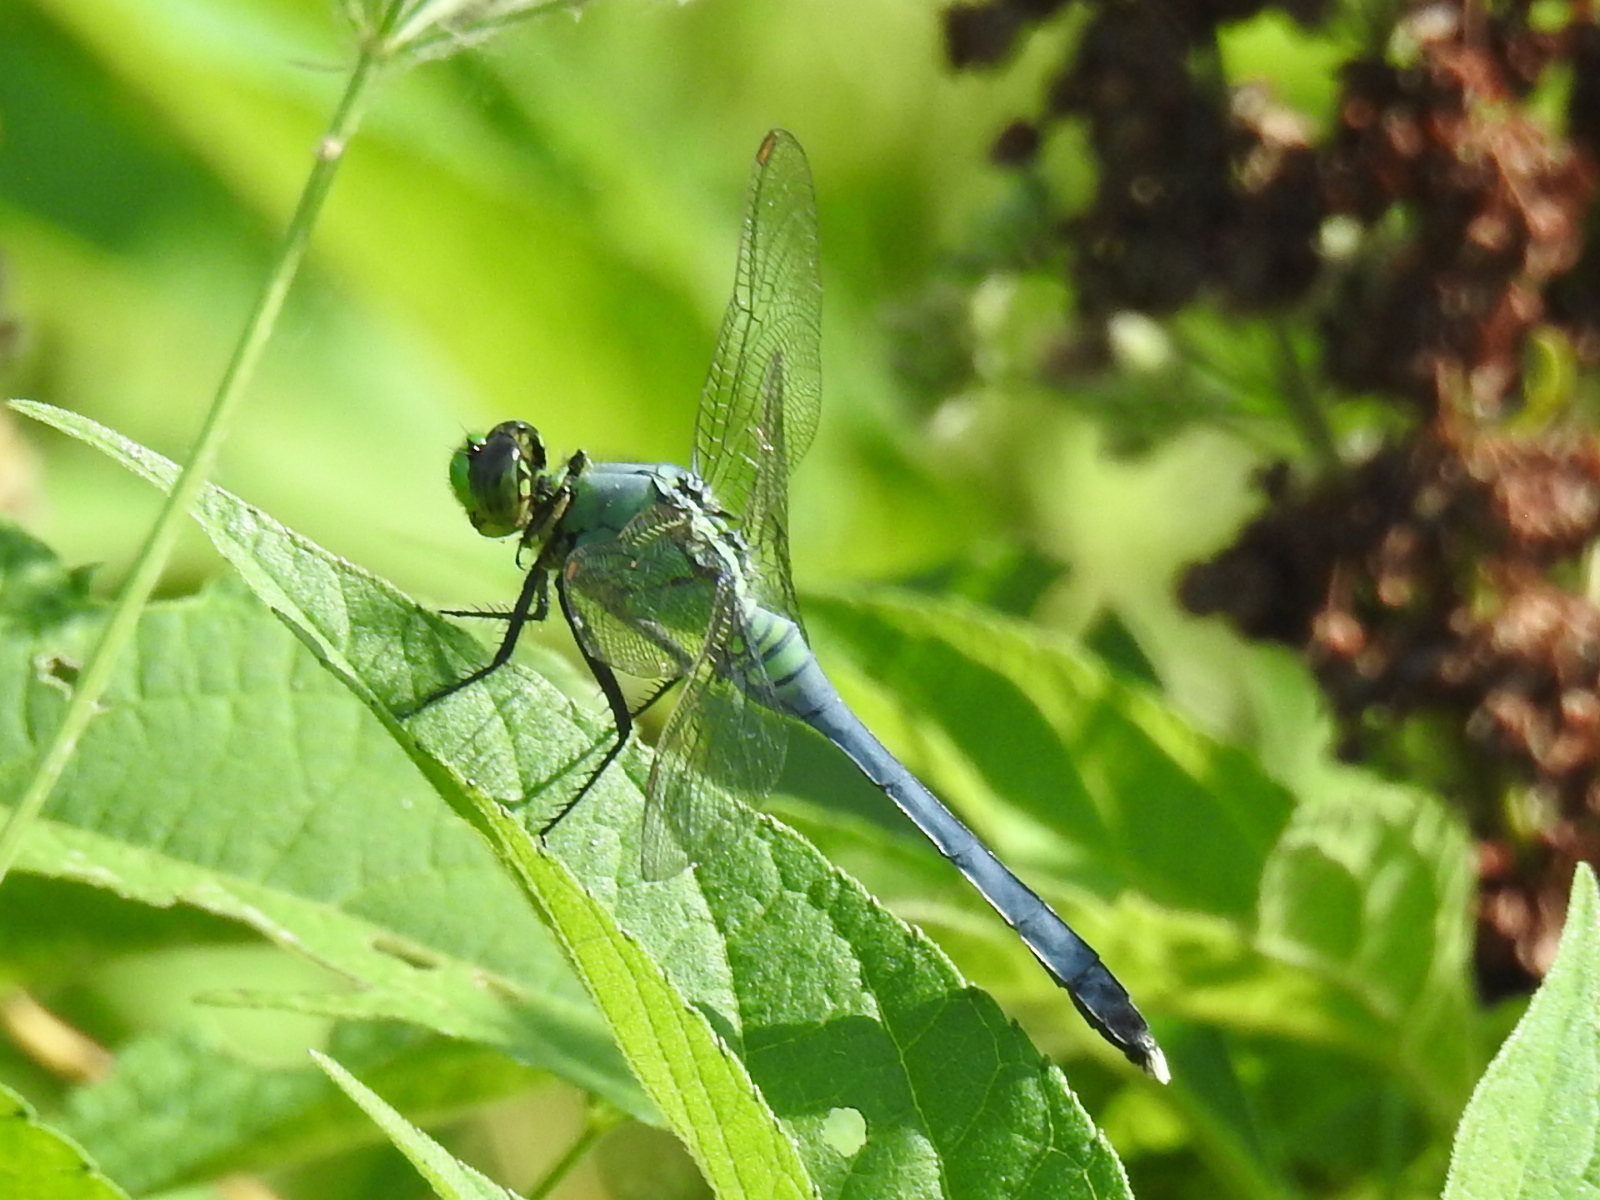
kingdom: Animalia
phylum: Arthropoda
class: Insecta
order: Odonata
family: Libellulidae
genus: Erythemis
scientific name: Erythemis simplicicollis
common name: Eastern pondhawk
